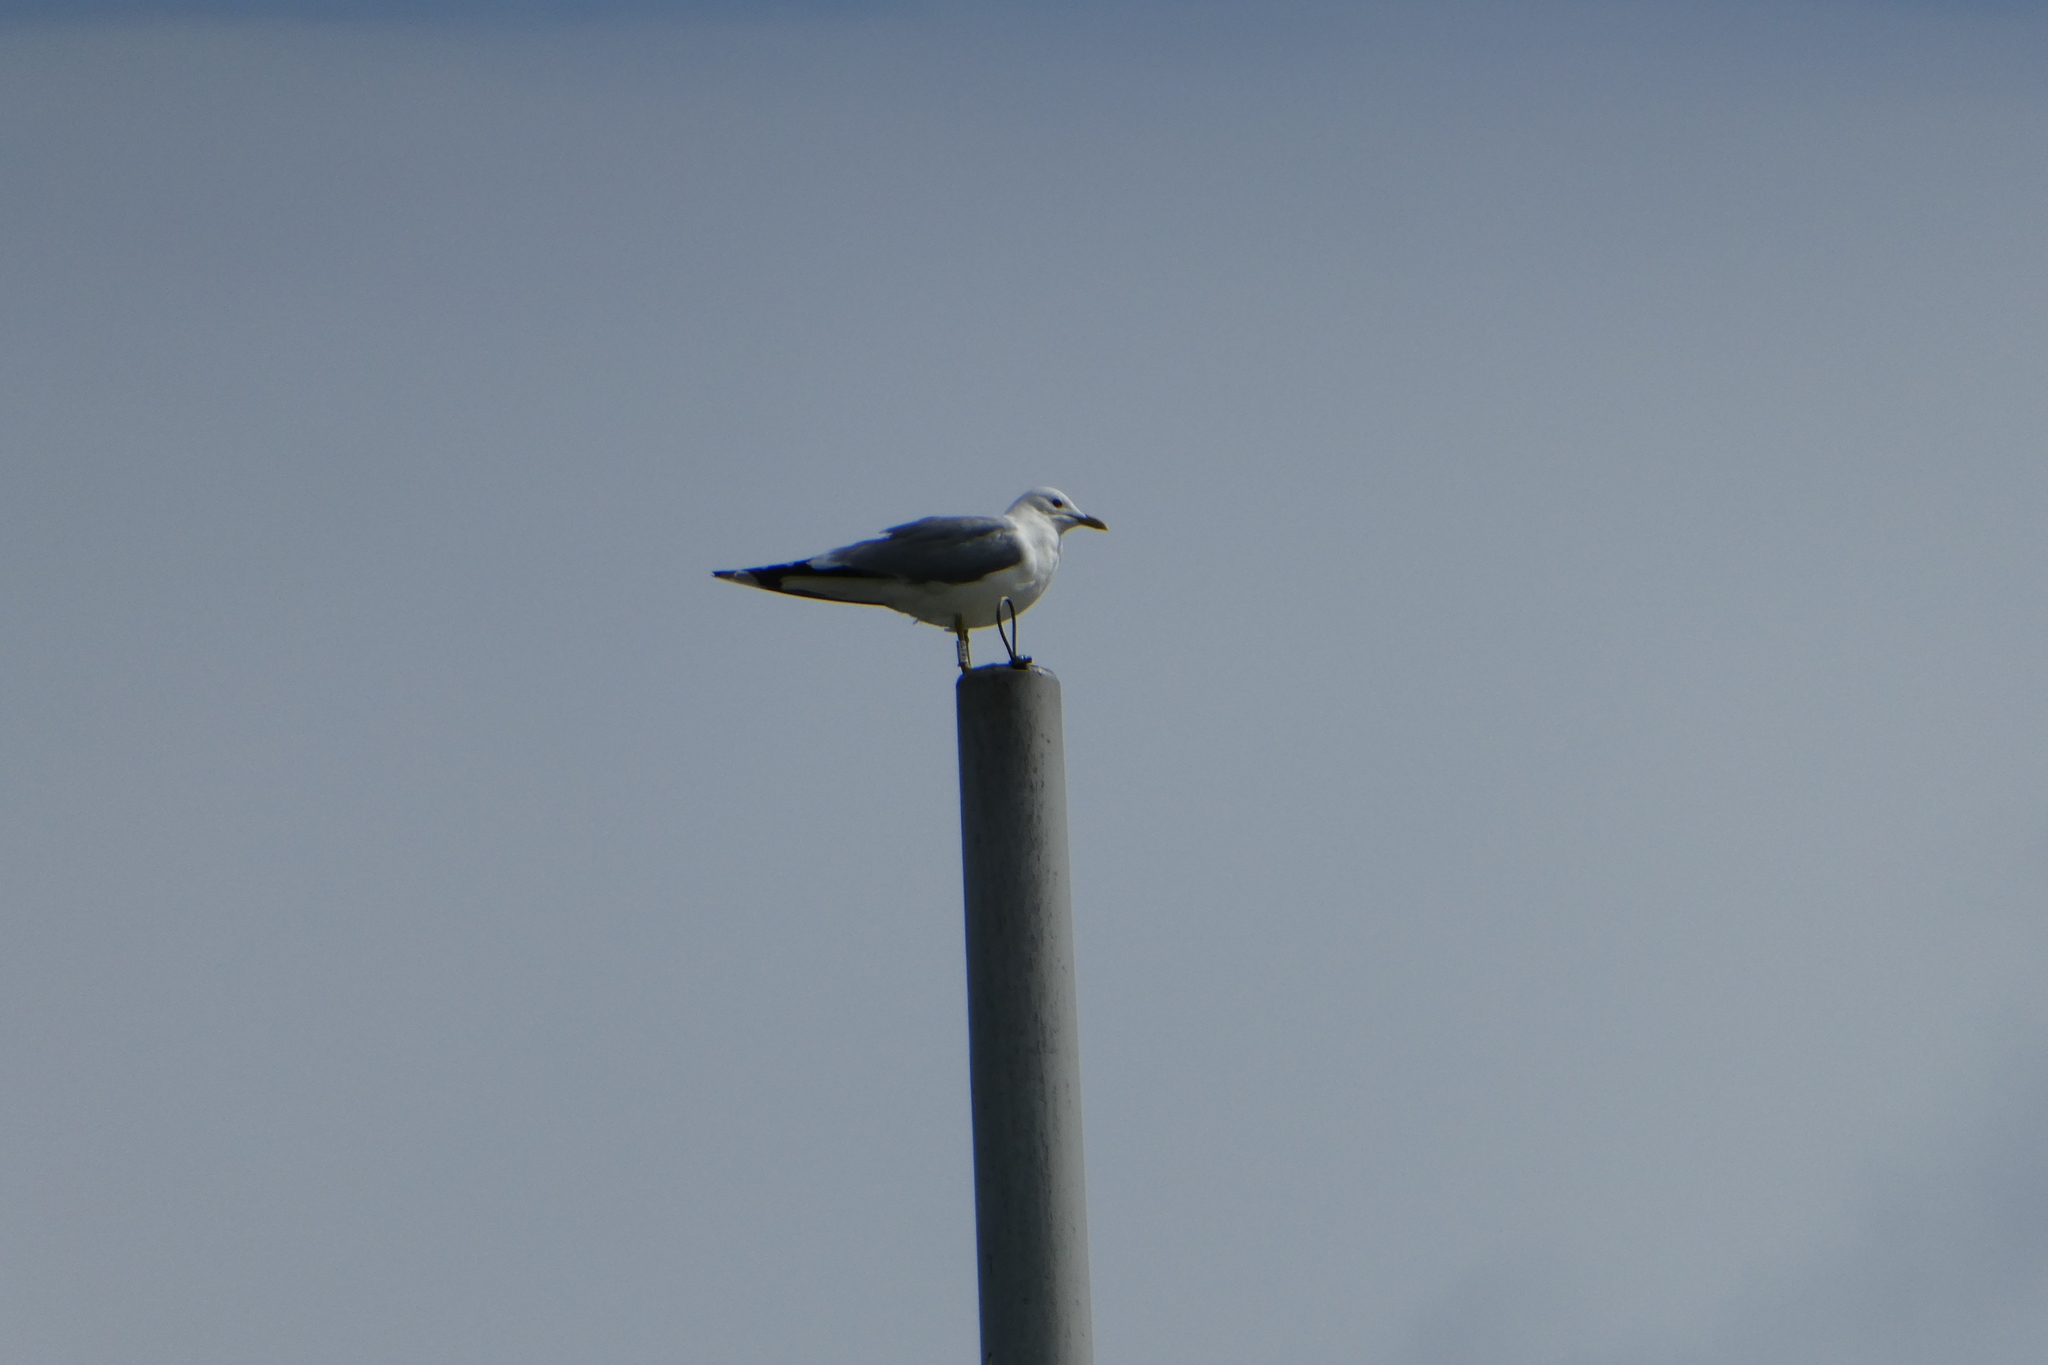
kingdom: Animalia
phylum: Chordata
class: Aves
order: Charadriiformes
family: Laridae
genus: Larus
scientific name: Larus canus
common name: Mew gull
